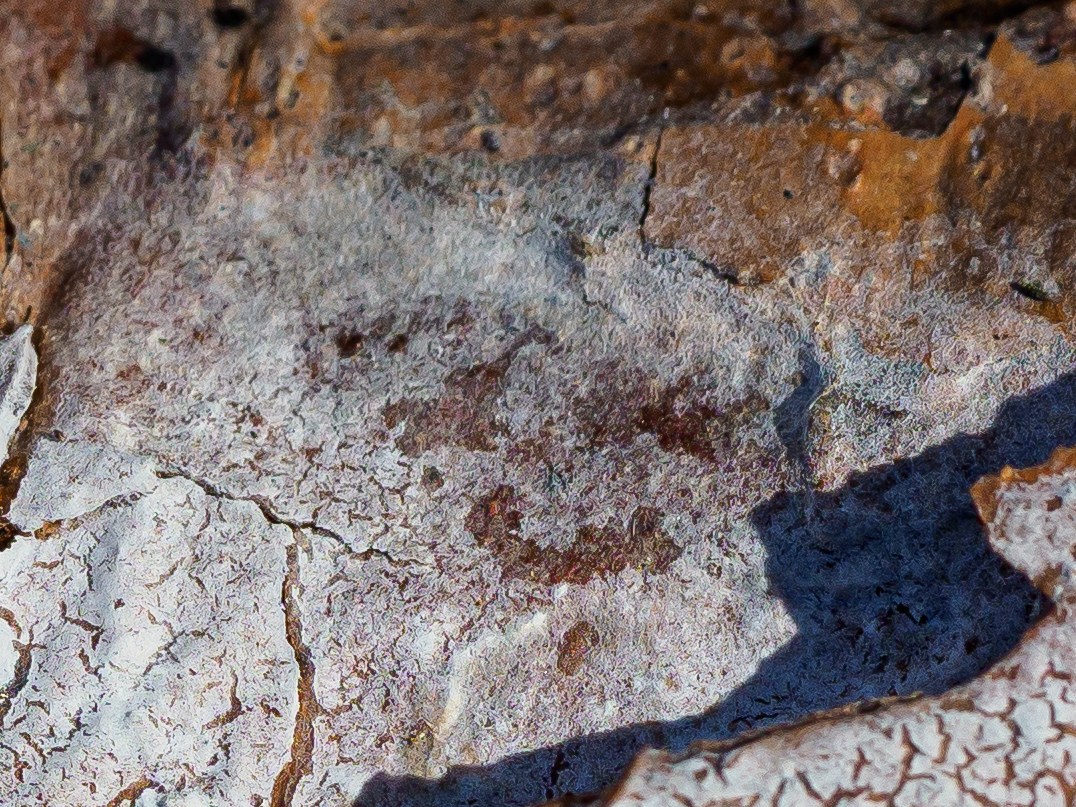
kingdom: Fungi
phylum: Basidiomycota
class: Agaricomycetes
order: Atheliales
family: Atheliaceae
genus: Athelia
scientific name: Athelia epiphylla
